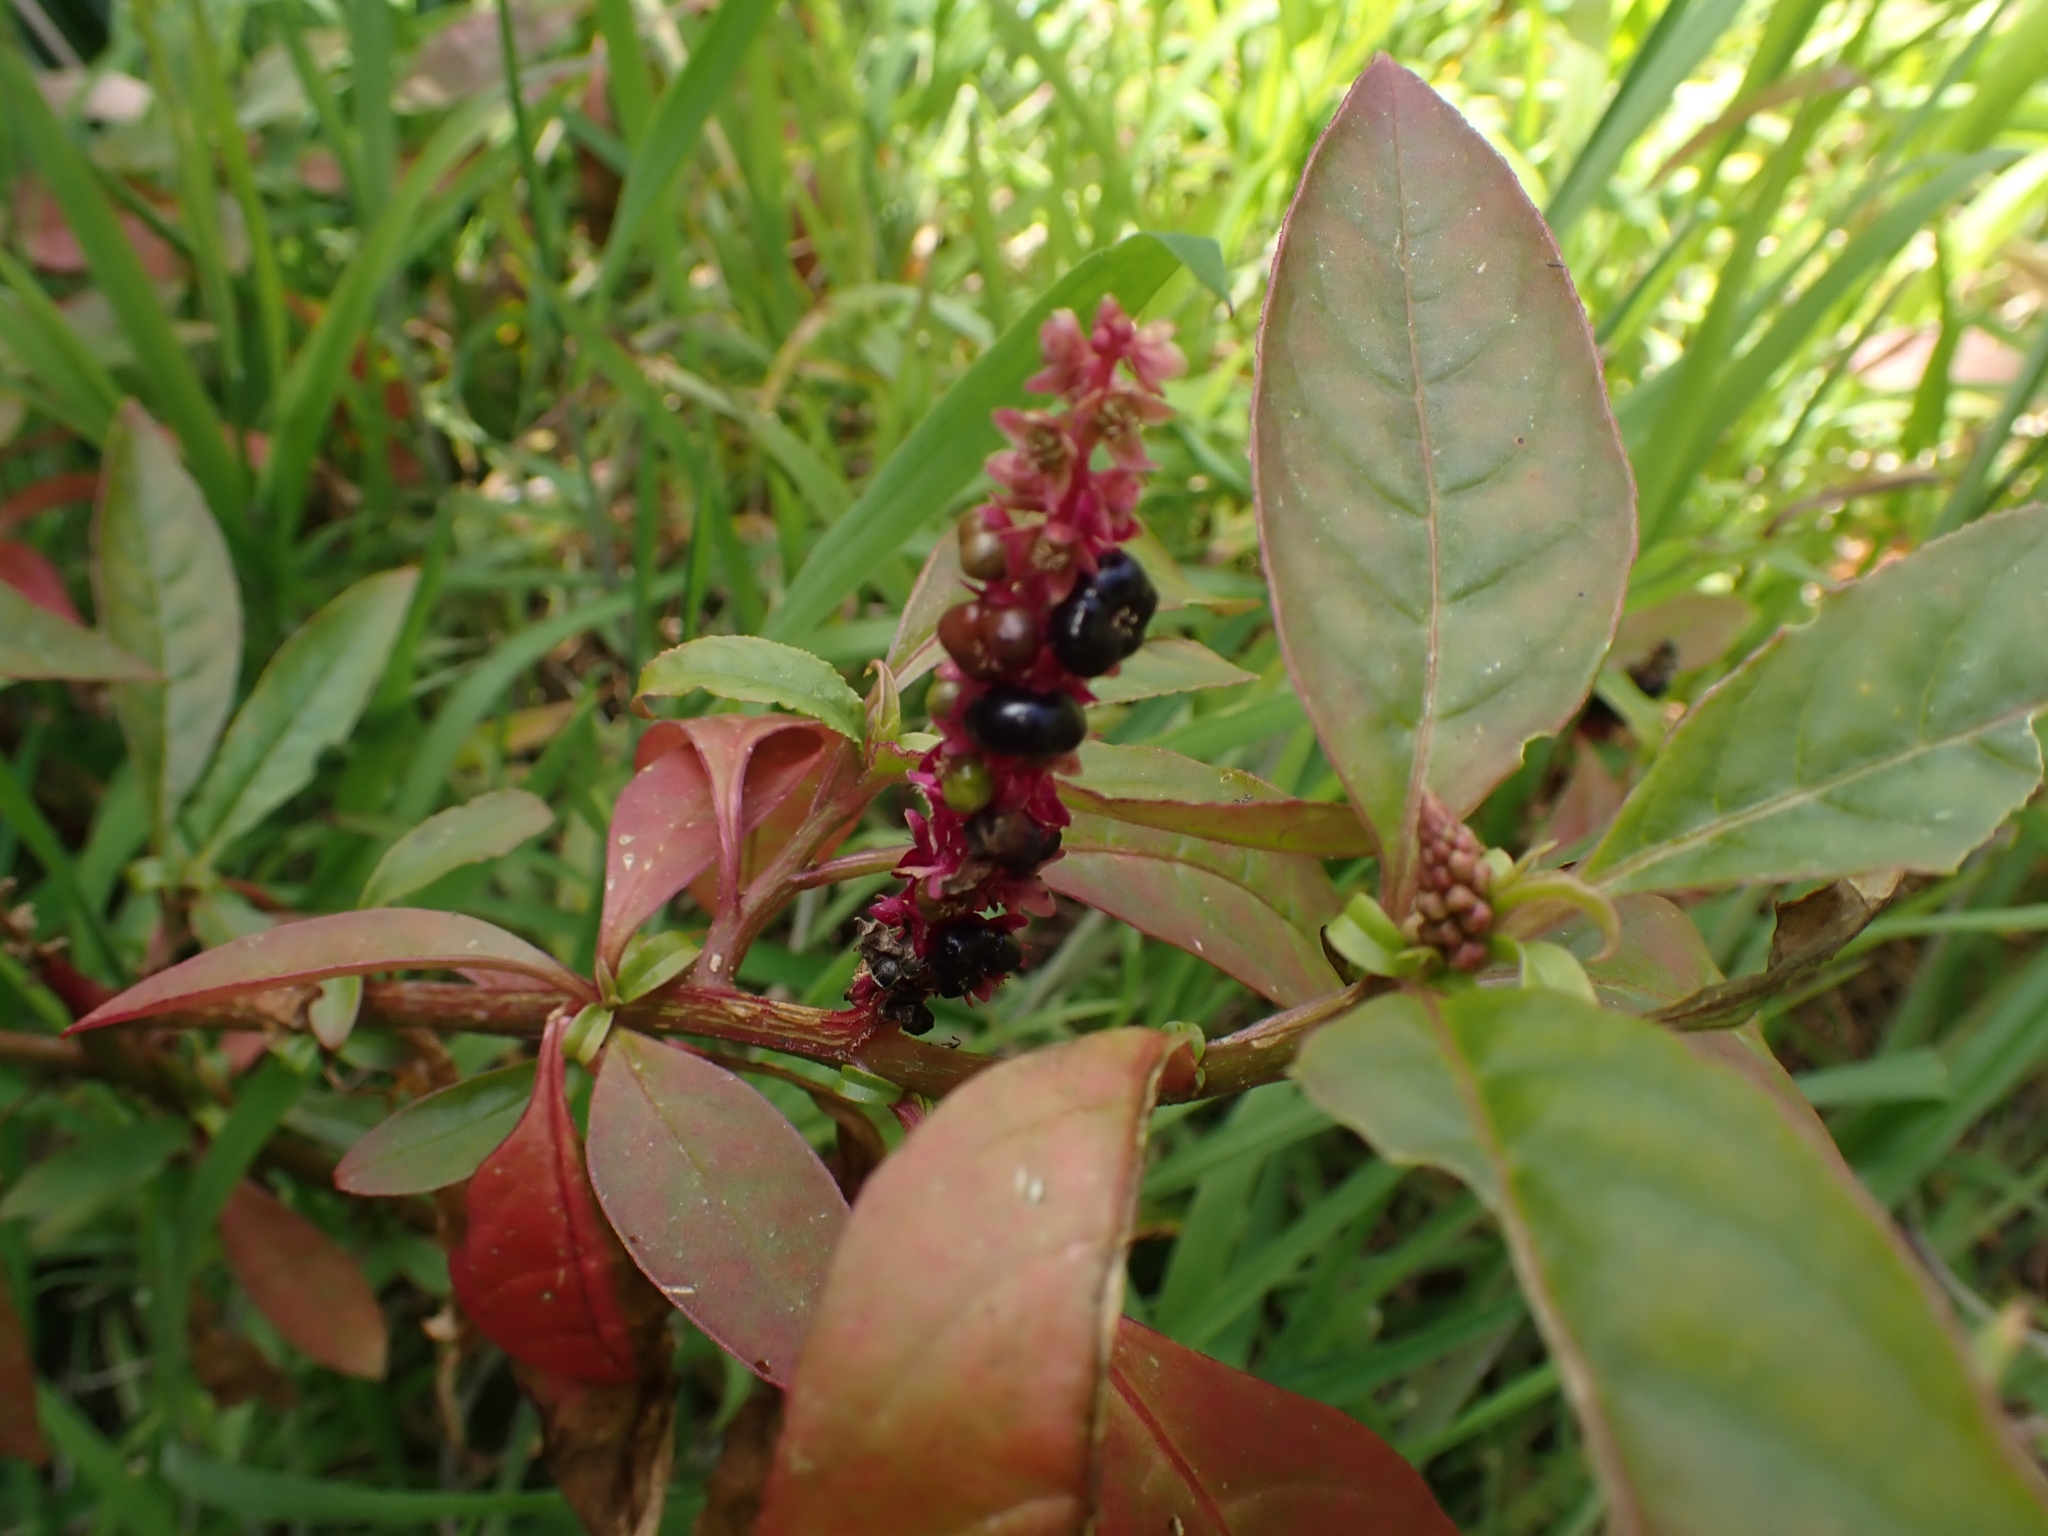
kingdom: Plantae
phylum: Tracheophyta
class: Magnoliopsida
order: Caryophyllales
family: Phytolaccaceae
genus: Phytolacca
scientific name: Phytolacca icosandra
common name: Button pokeweed
